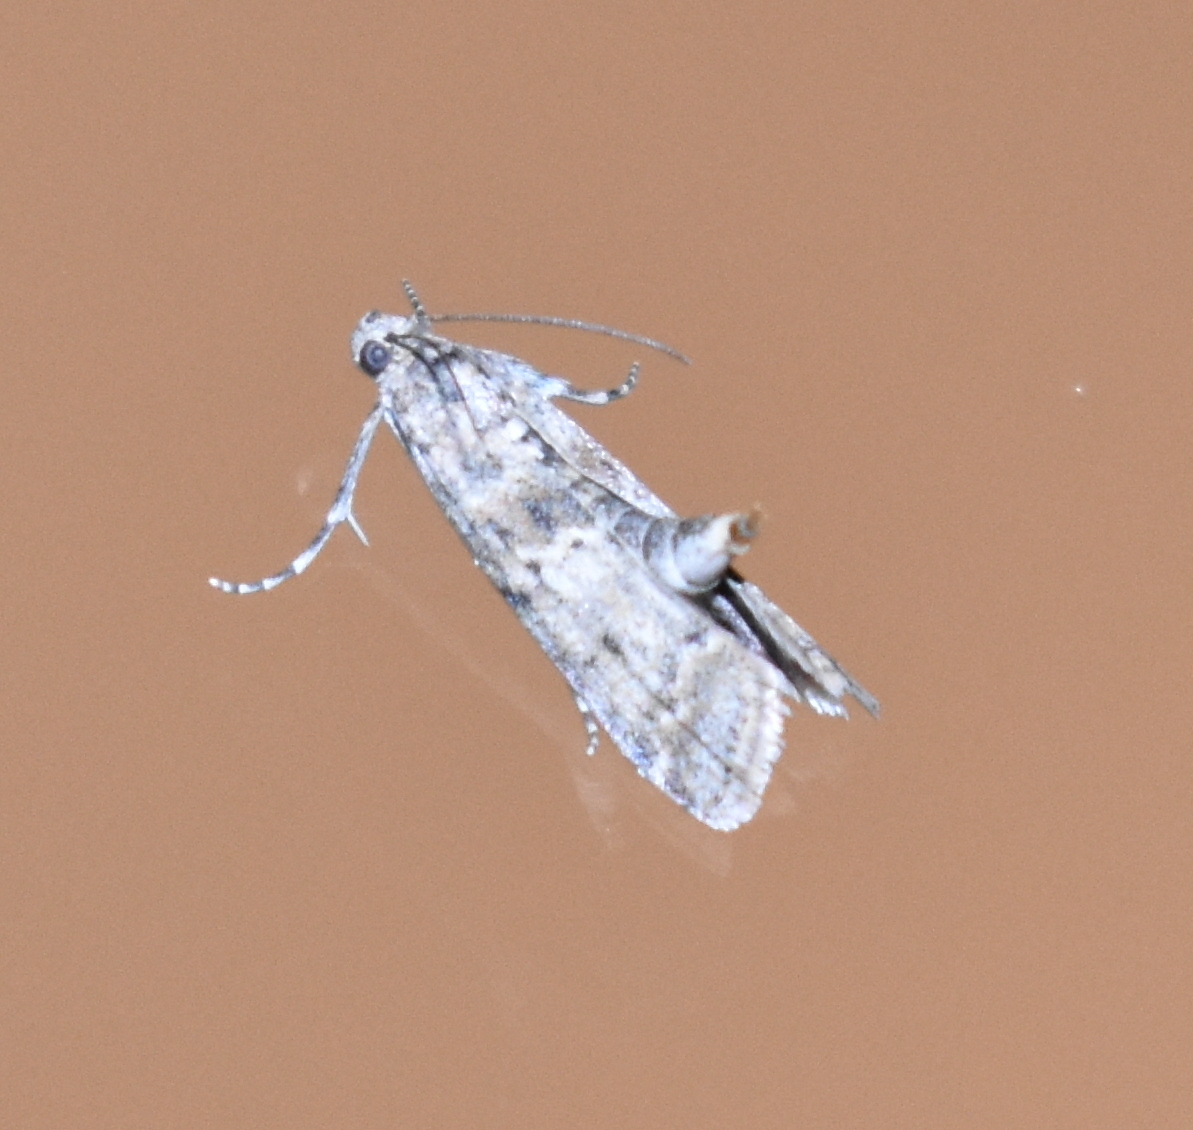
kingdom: Animalia
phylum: Arthropoda
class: Insecta
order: Lepidoptera
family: Pyralidae
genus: Ancylosis
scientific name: Ancylosis undulatella
